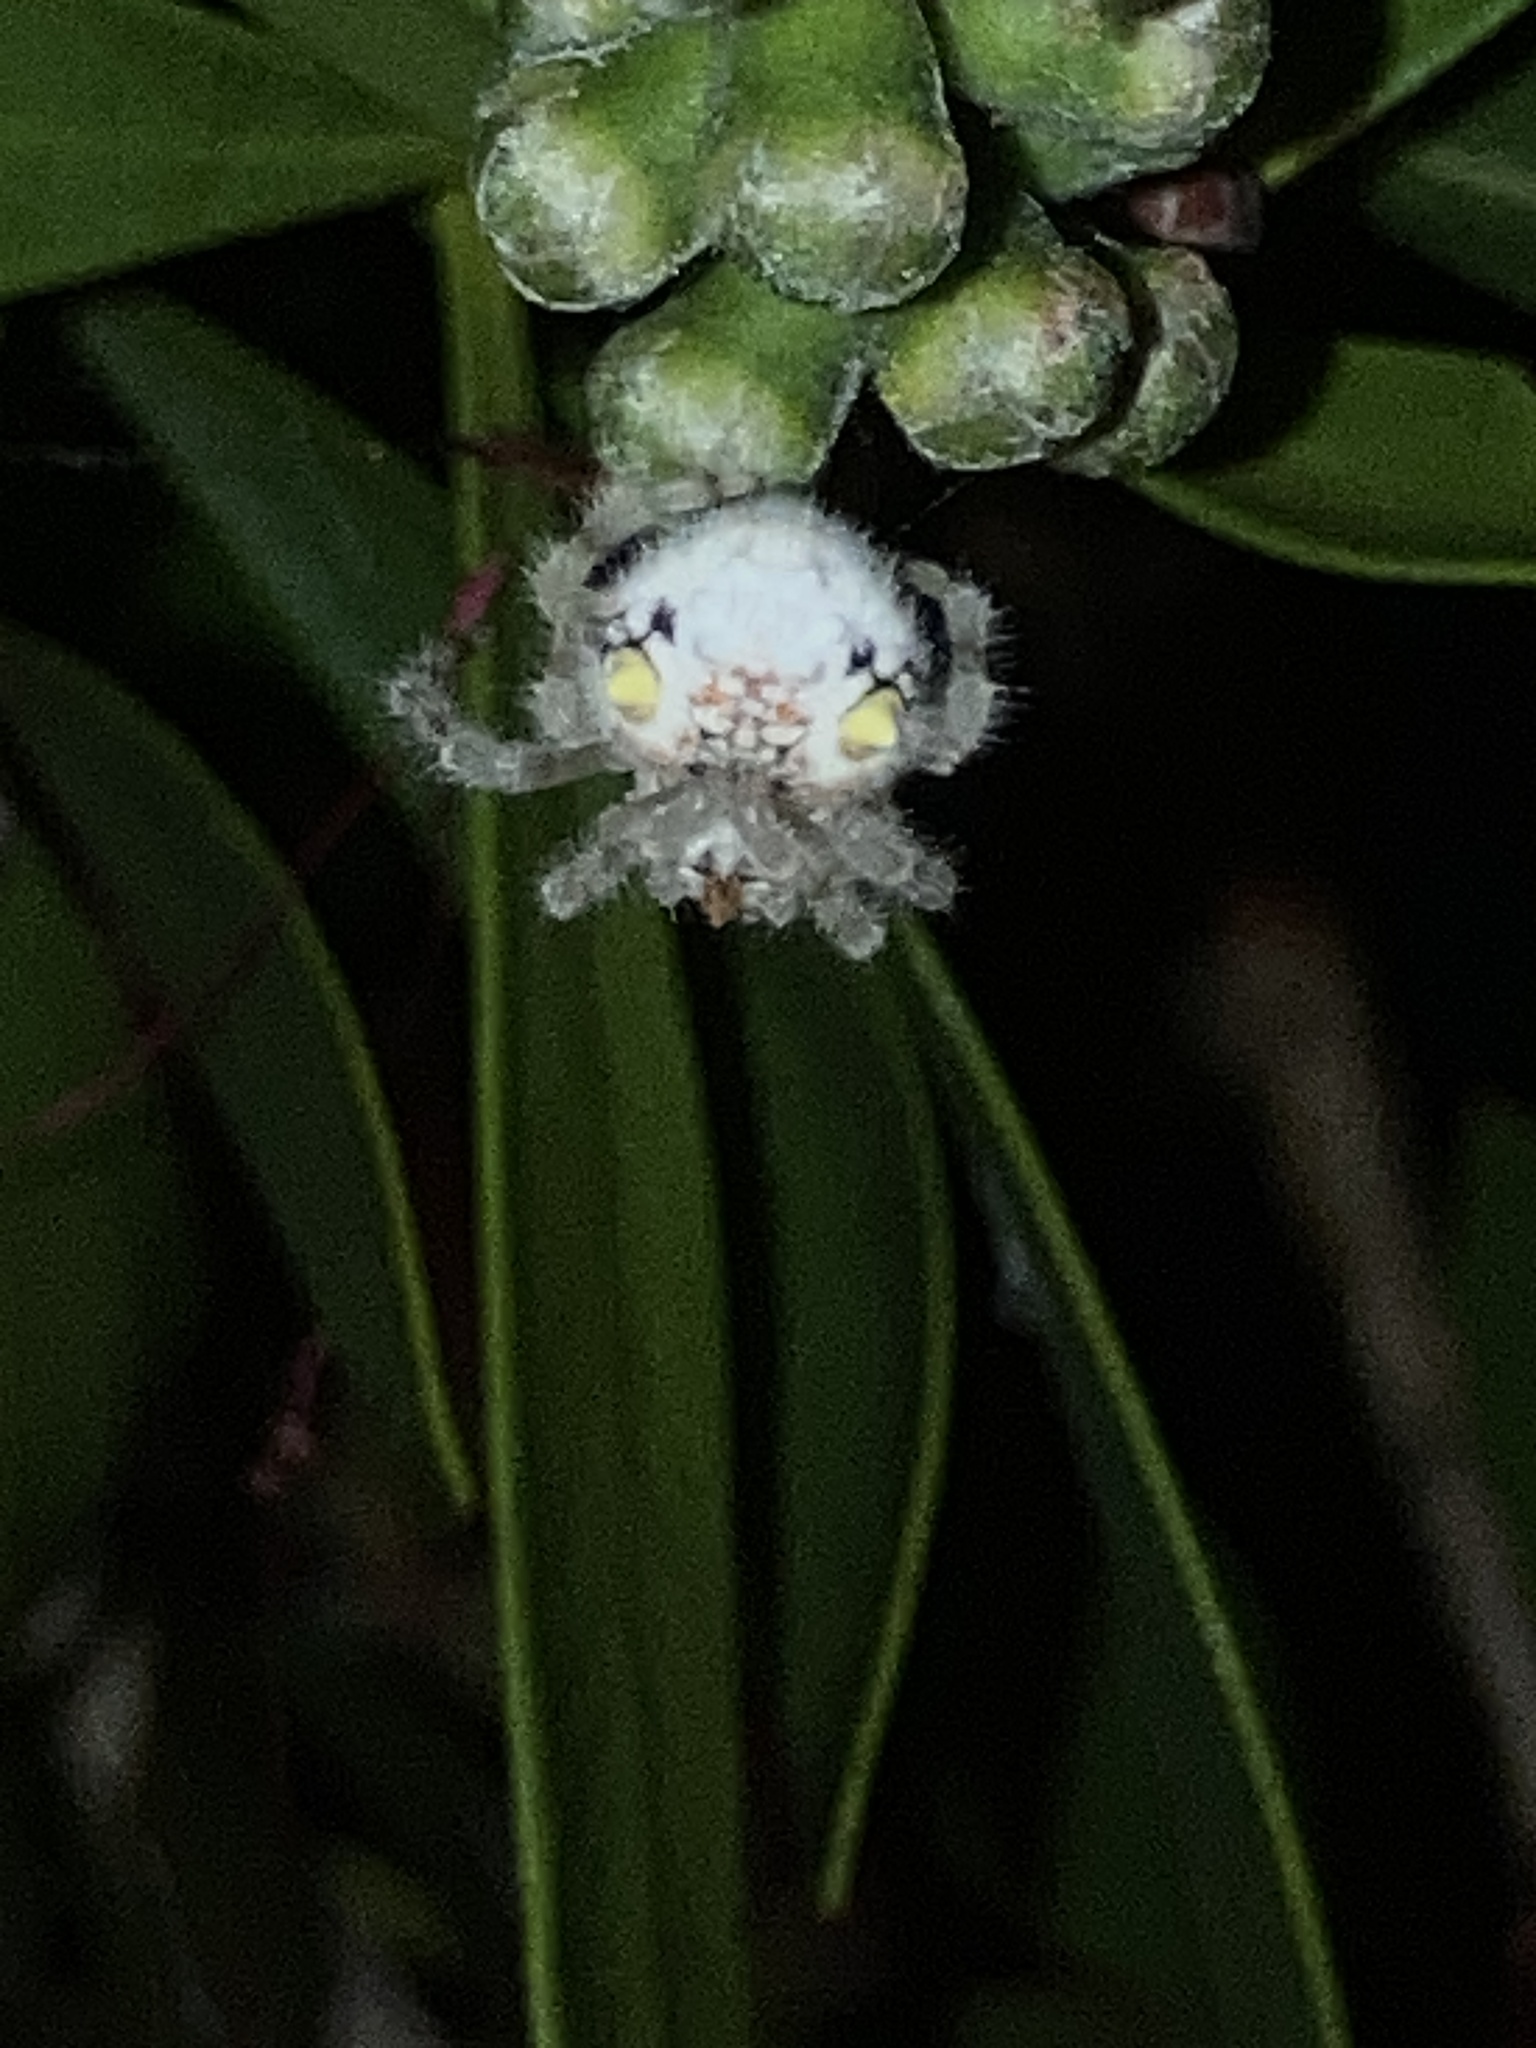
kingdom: Animalia
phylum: Arthropoda
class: Arachnida
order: Araneae
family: Araneidae
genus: Ordgarius
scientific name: Ordgarius magnificus
